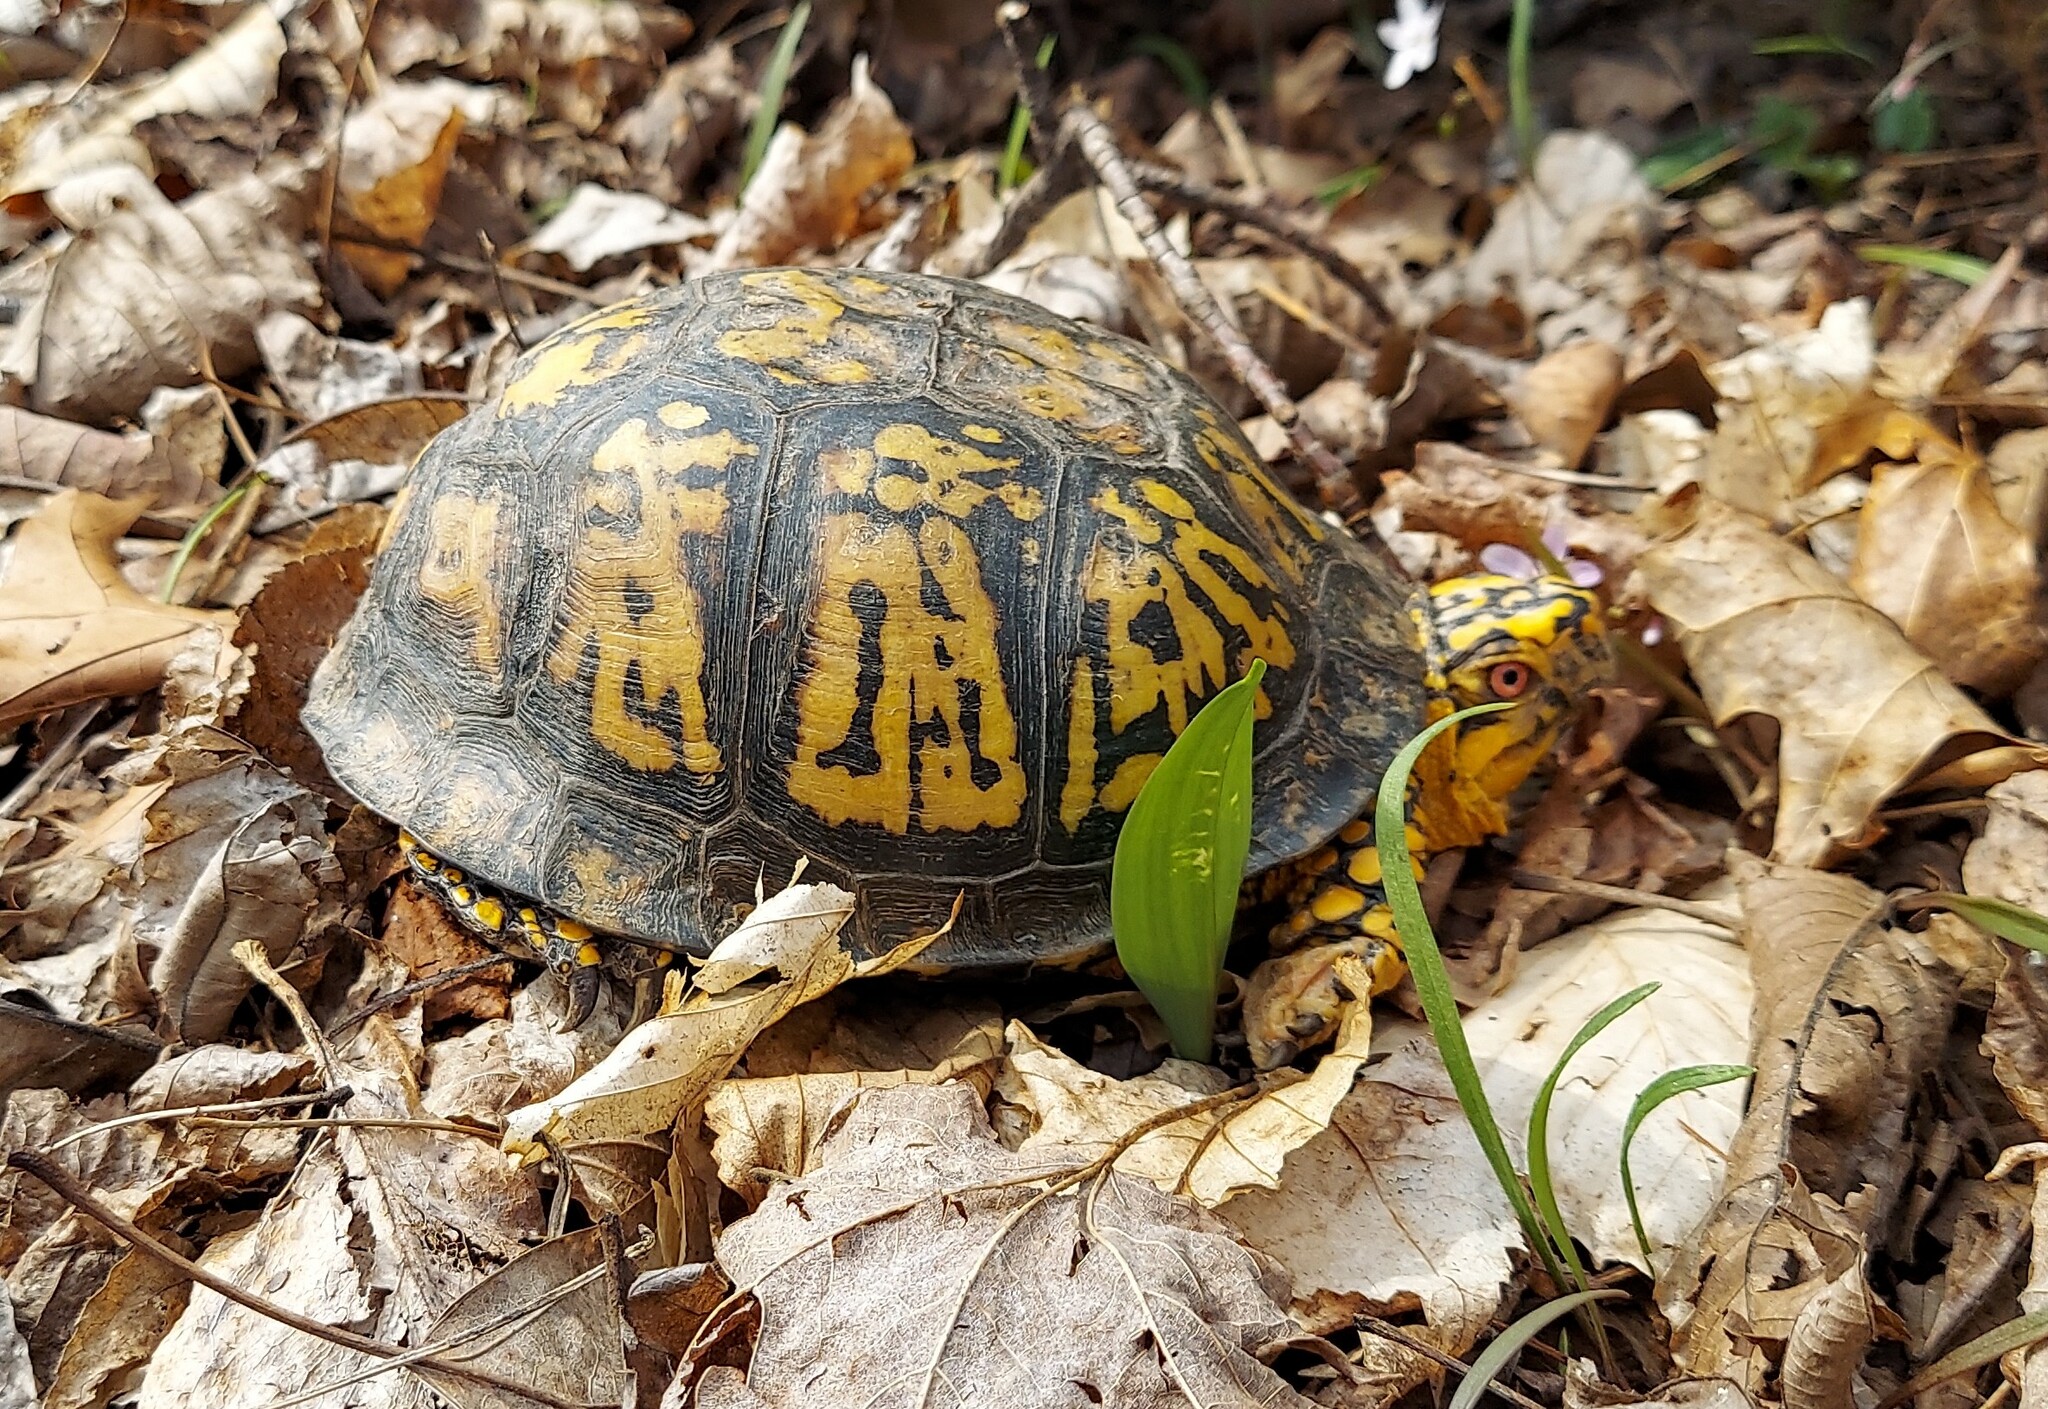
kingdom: Animalia
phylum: Chordata
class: Testudines
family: Emydidae
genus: Terrapene
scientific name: Terrapene carolina
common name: Common box turtle
